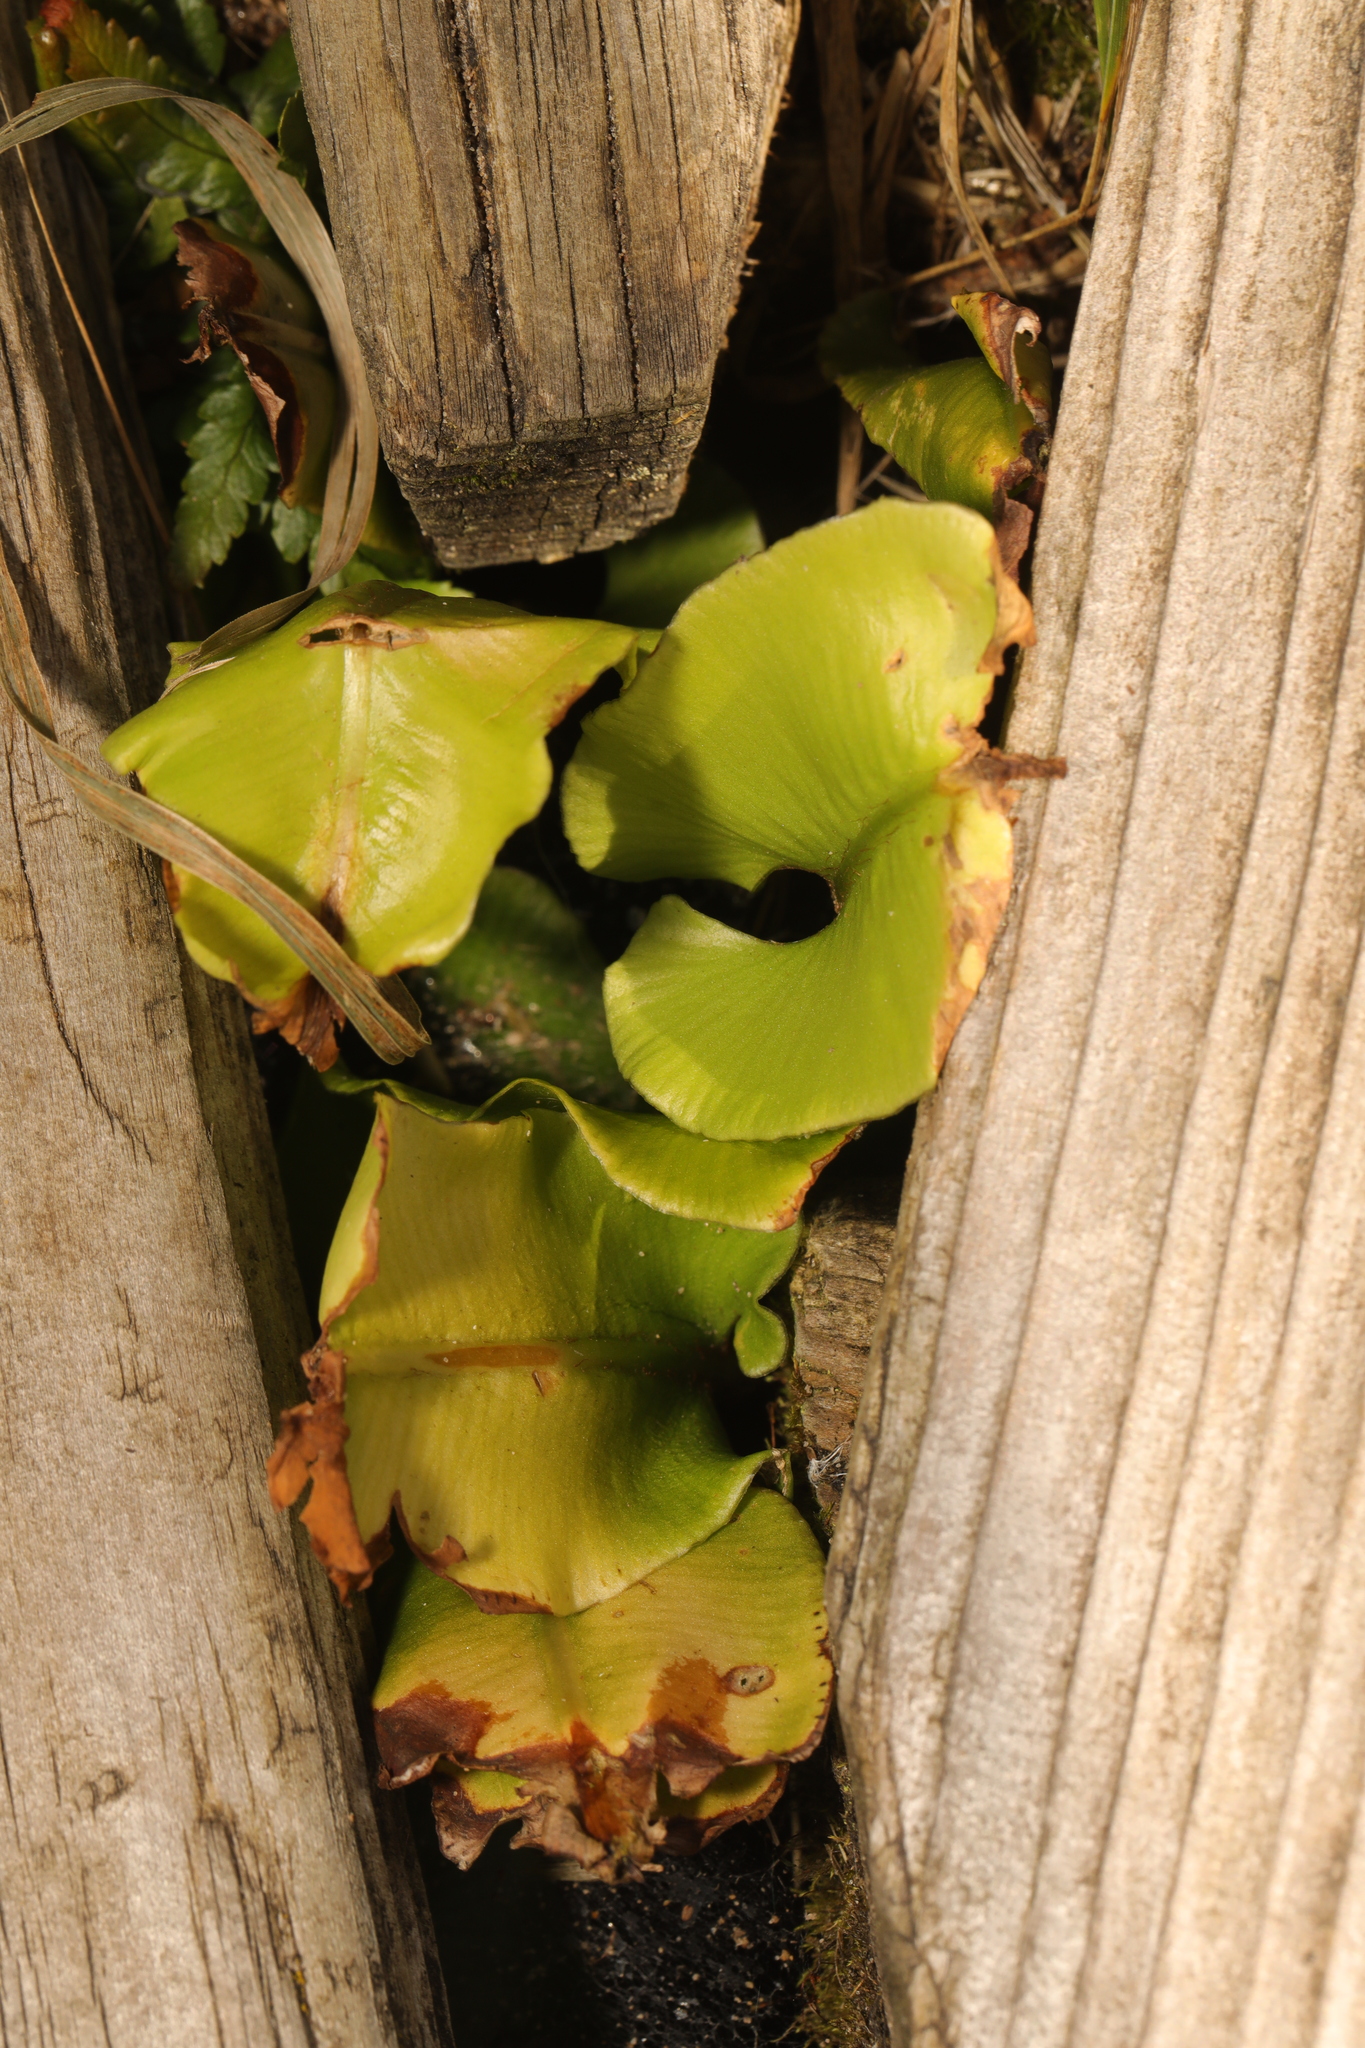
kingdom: Plantae
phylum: Tracheophyta
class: Polypodiopsida
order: Polypodiales
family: Aspleniaceae
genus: Asplenium
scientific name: Asplenium scolopendrium
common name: Hart's-tongue fern
